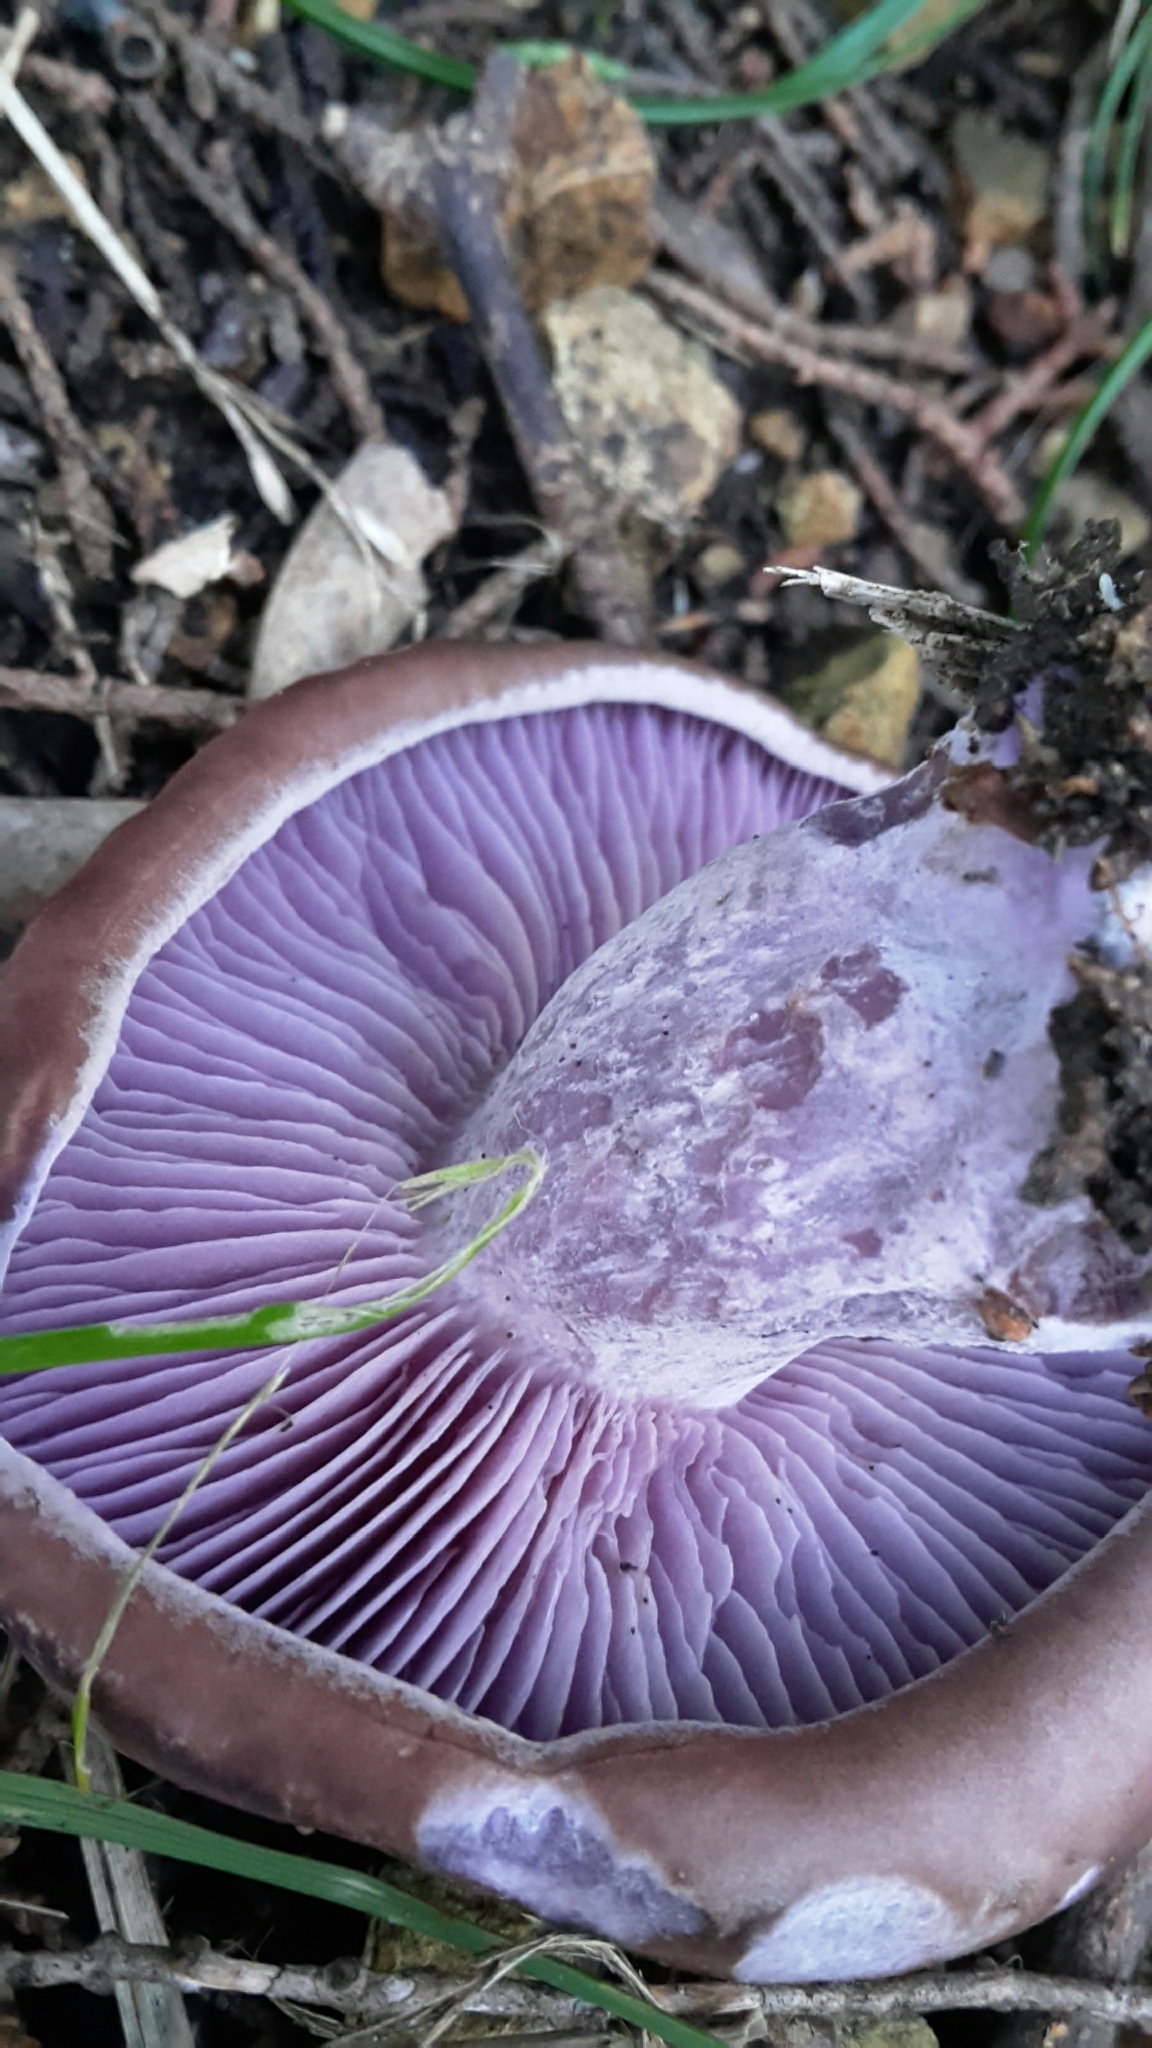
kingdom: Fungi
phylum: Basidiomycota
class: Agaricomycetes
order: Agaricales
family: Tricholomataceae
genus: Collybia
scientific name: Collybia
